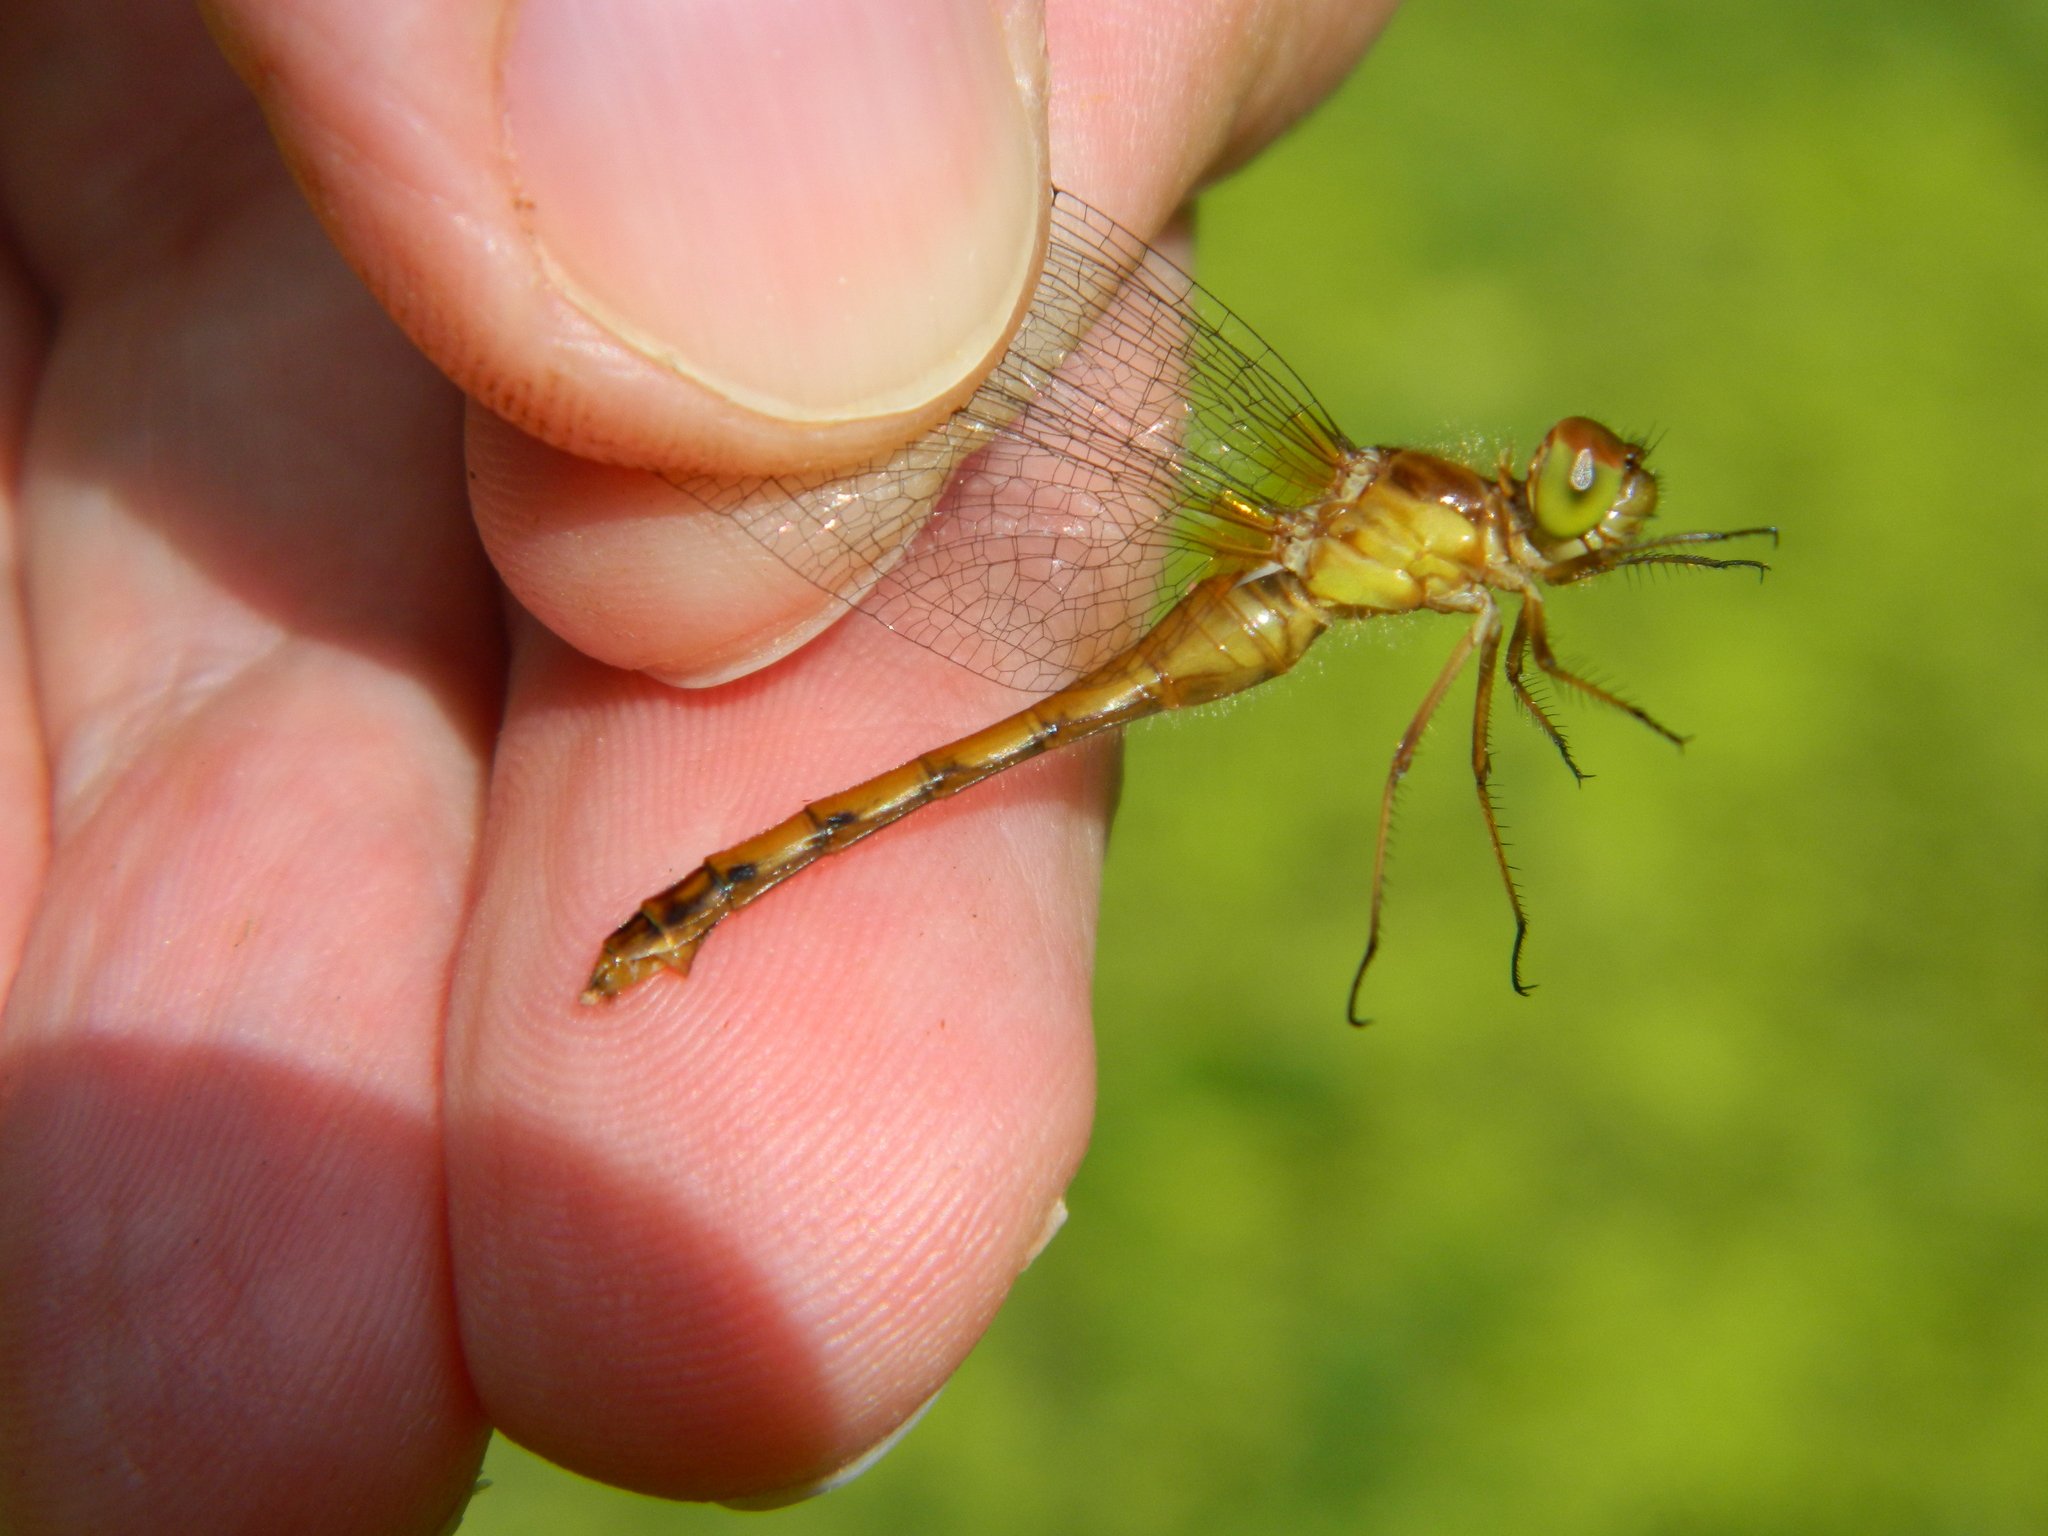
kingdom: Animalia
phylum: Arthropoda
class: Insecta
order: Odonata
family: Libellulidae
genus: Sympetrum
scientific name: Sympetrum vicinum
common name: Autumn meadowhawk
